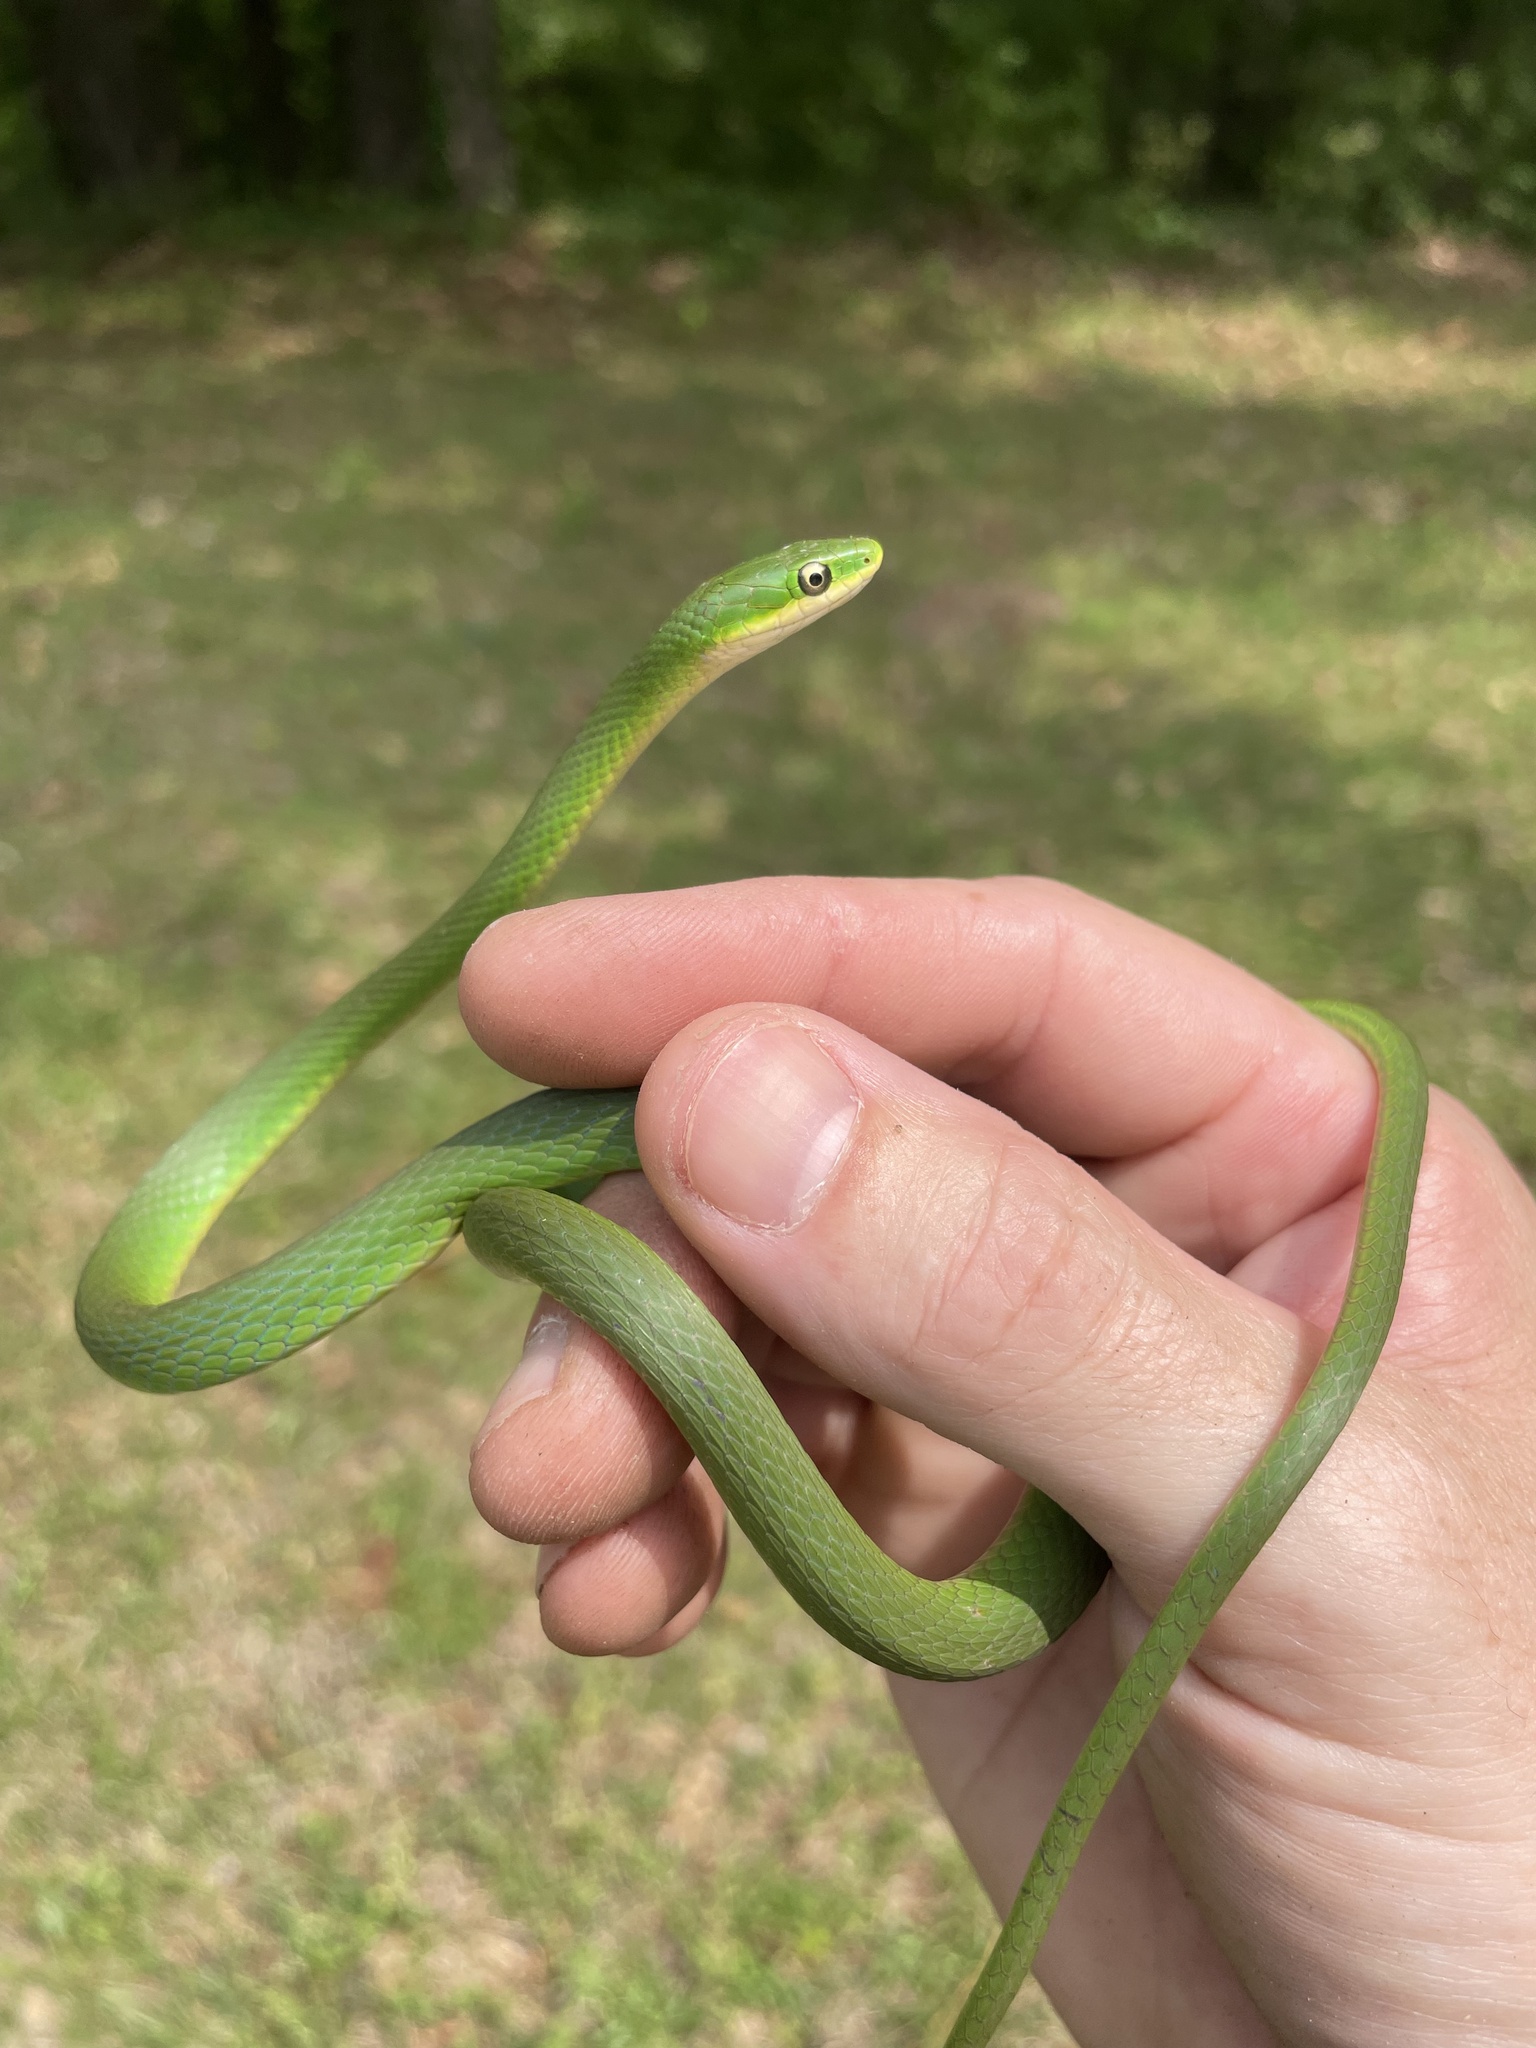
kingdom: Animalia
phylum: Chordata
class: Squamata
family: Colubridae
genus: Opheodrys
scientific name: Opheodrys aestivus
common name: Rough greensnake
